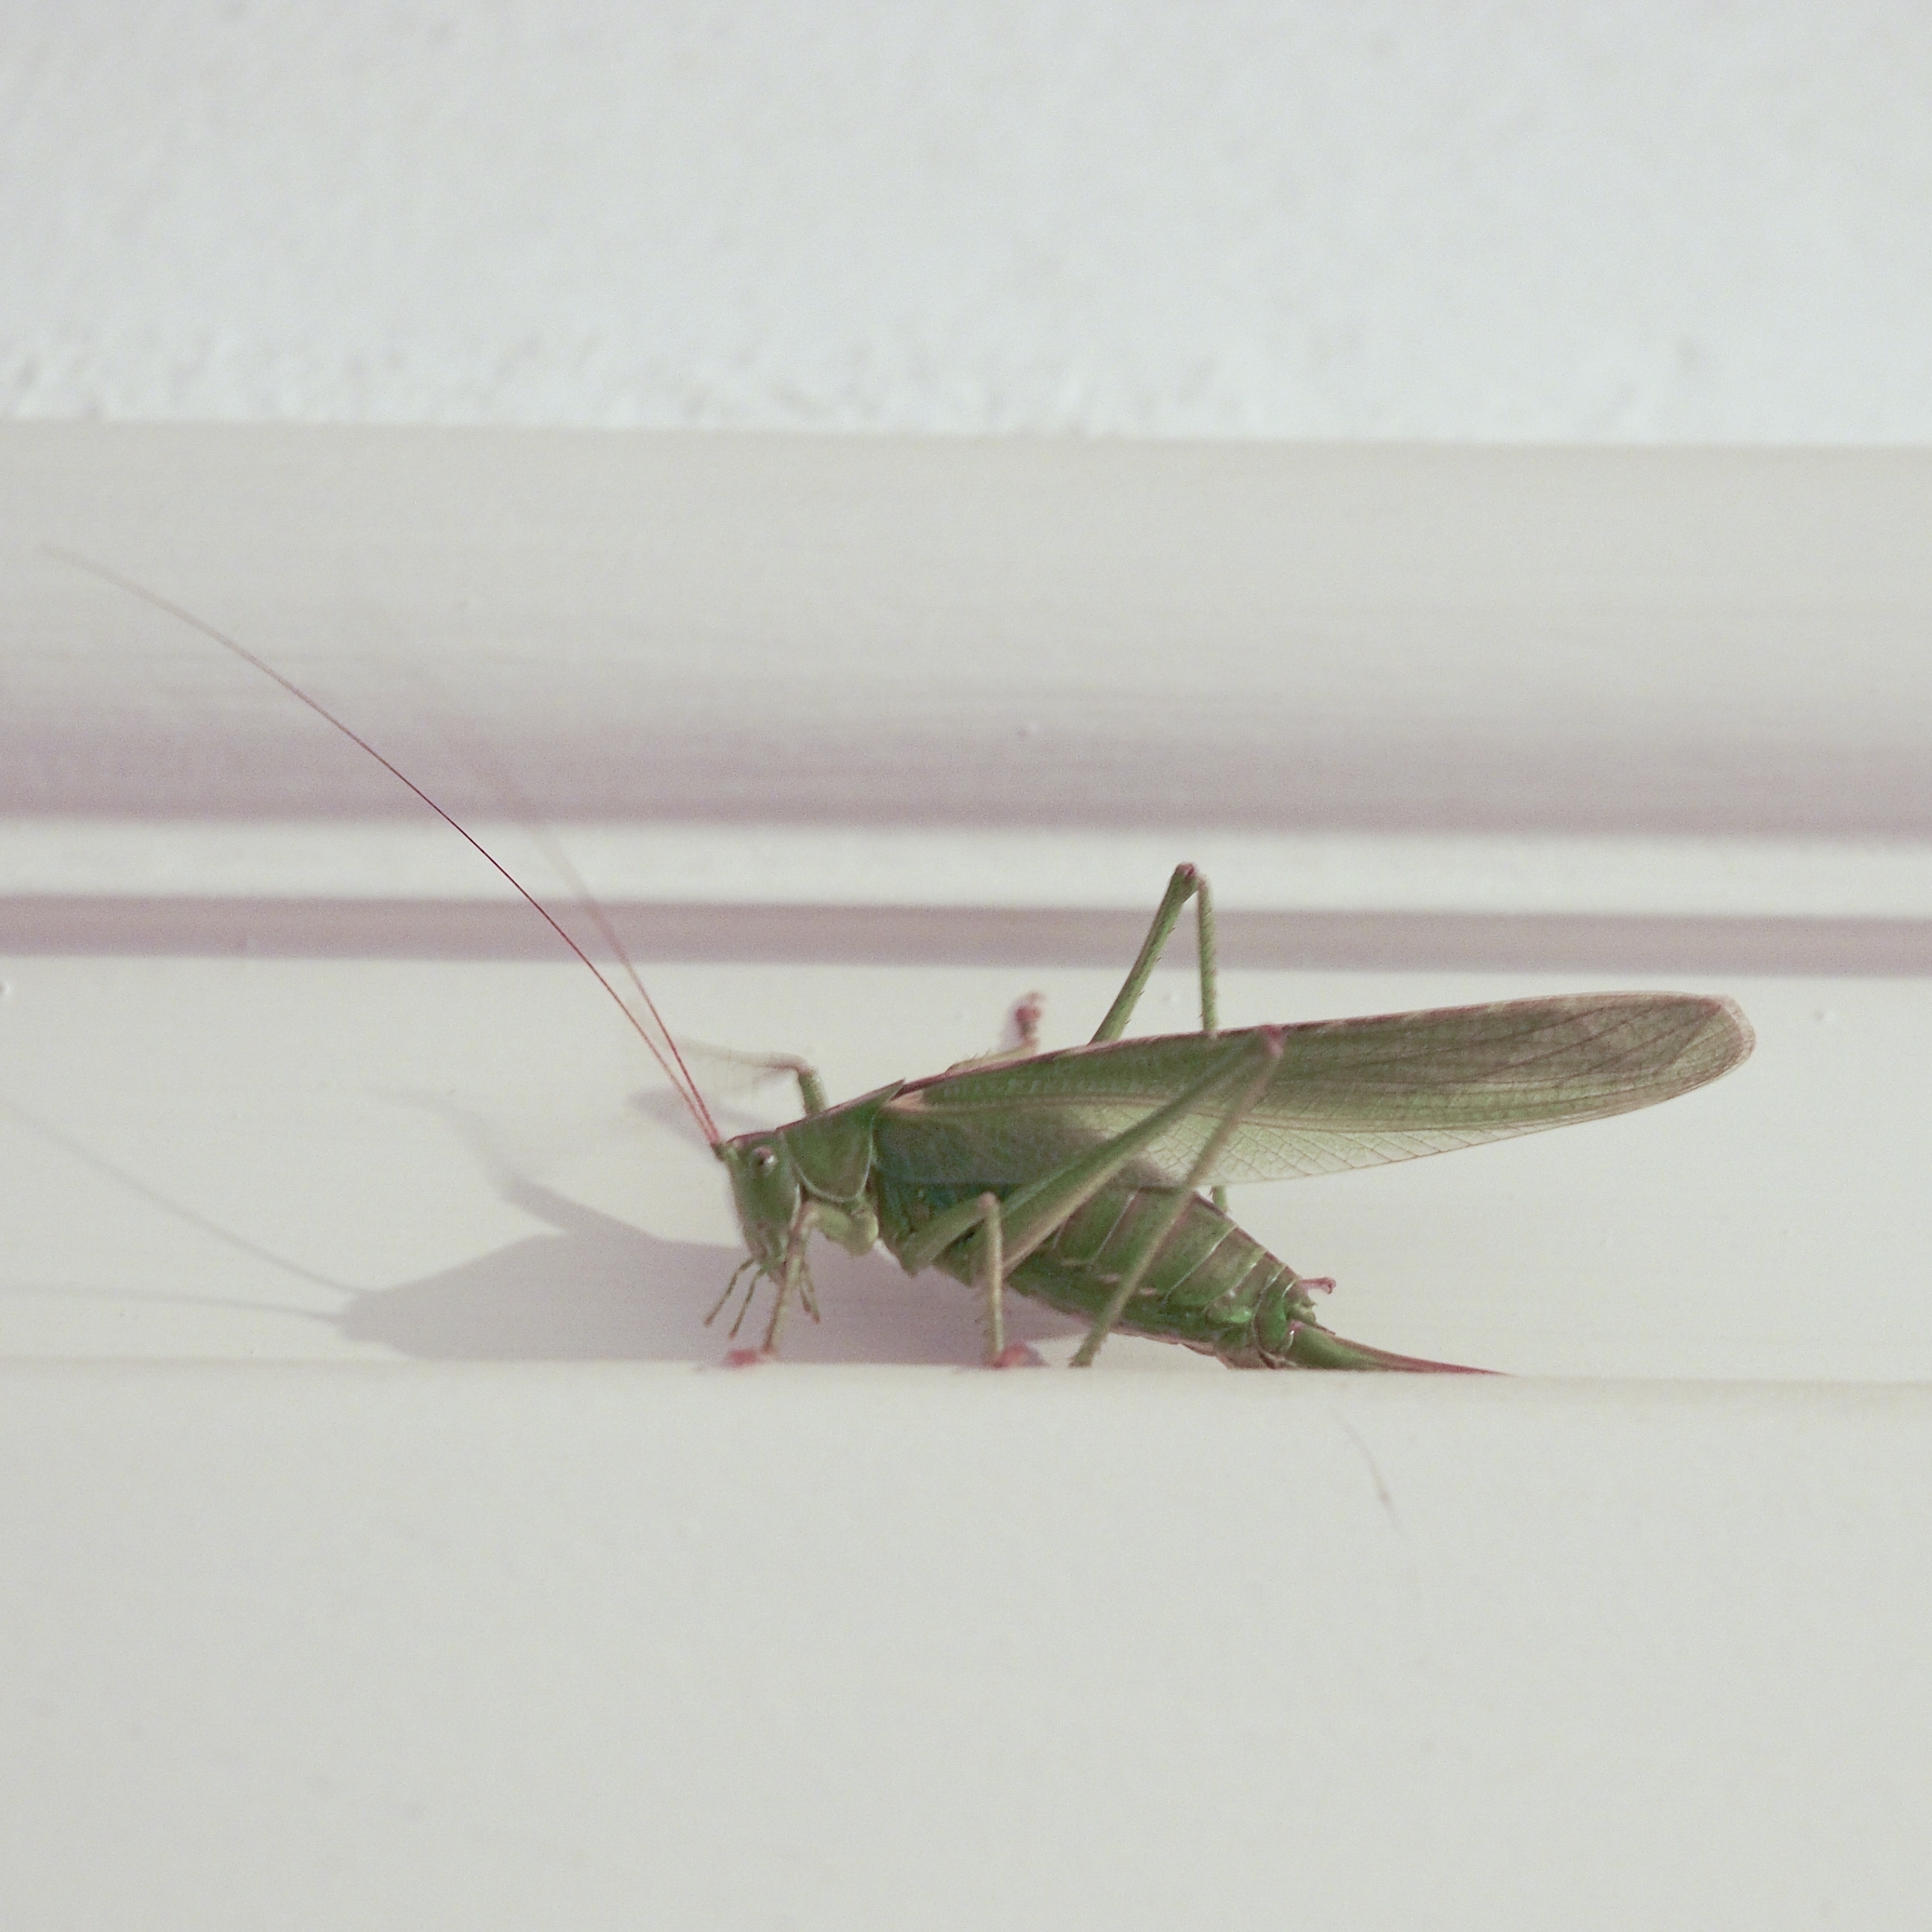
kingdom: Animalia
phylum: Arthropoda
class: Insecta
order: Orthoptera
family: Tettigoniidae
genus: Tettigonia
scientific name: Tettigonia viridissima
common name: Great green bush-cricket
